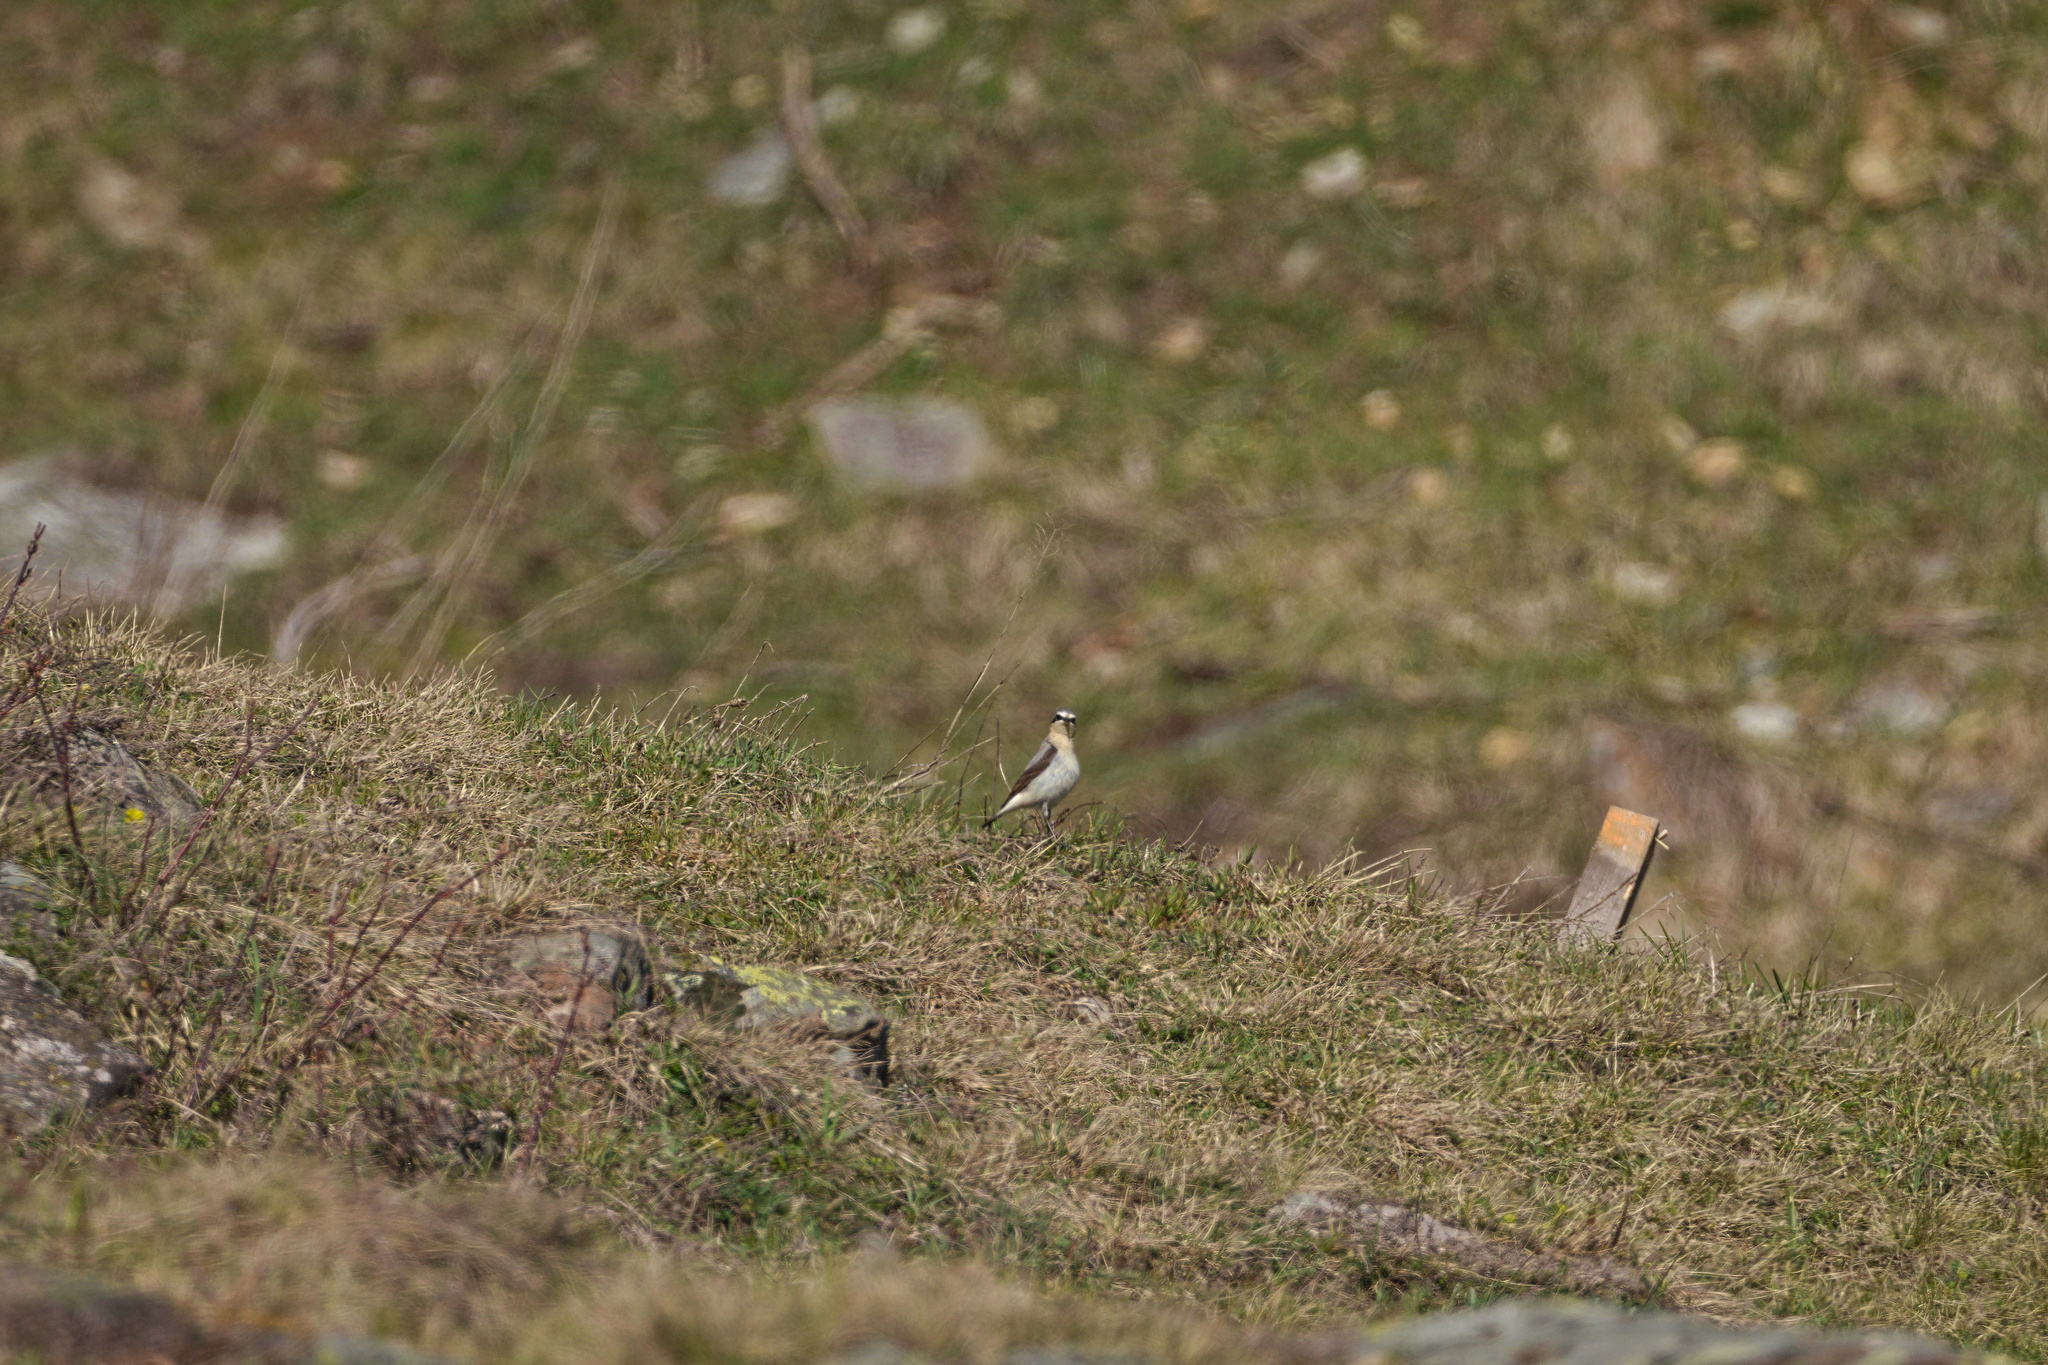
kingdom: Animalia
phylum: Chordata
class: Aves
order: Passeriformes
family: Muscicapidae
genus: Oenanthe
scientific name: Oenanthe oenanthe
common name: Northern wheatear
